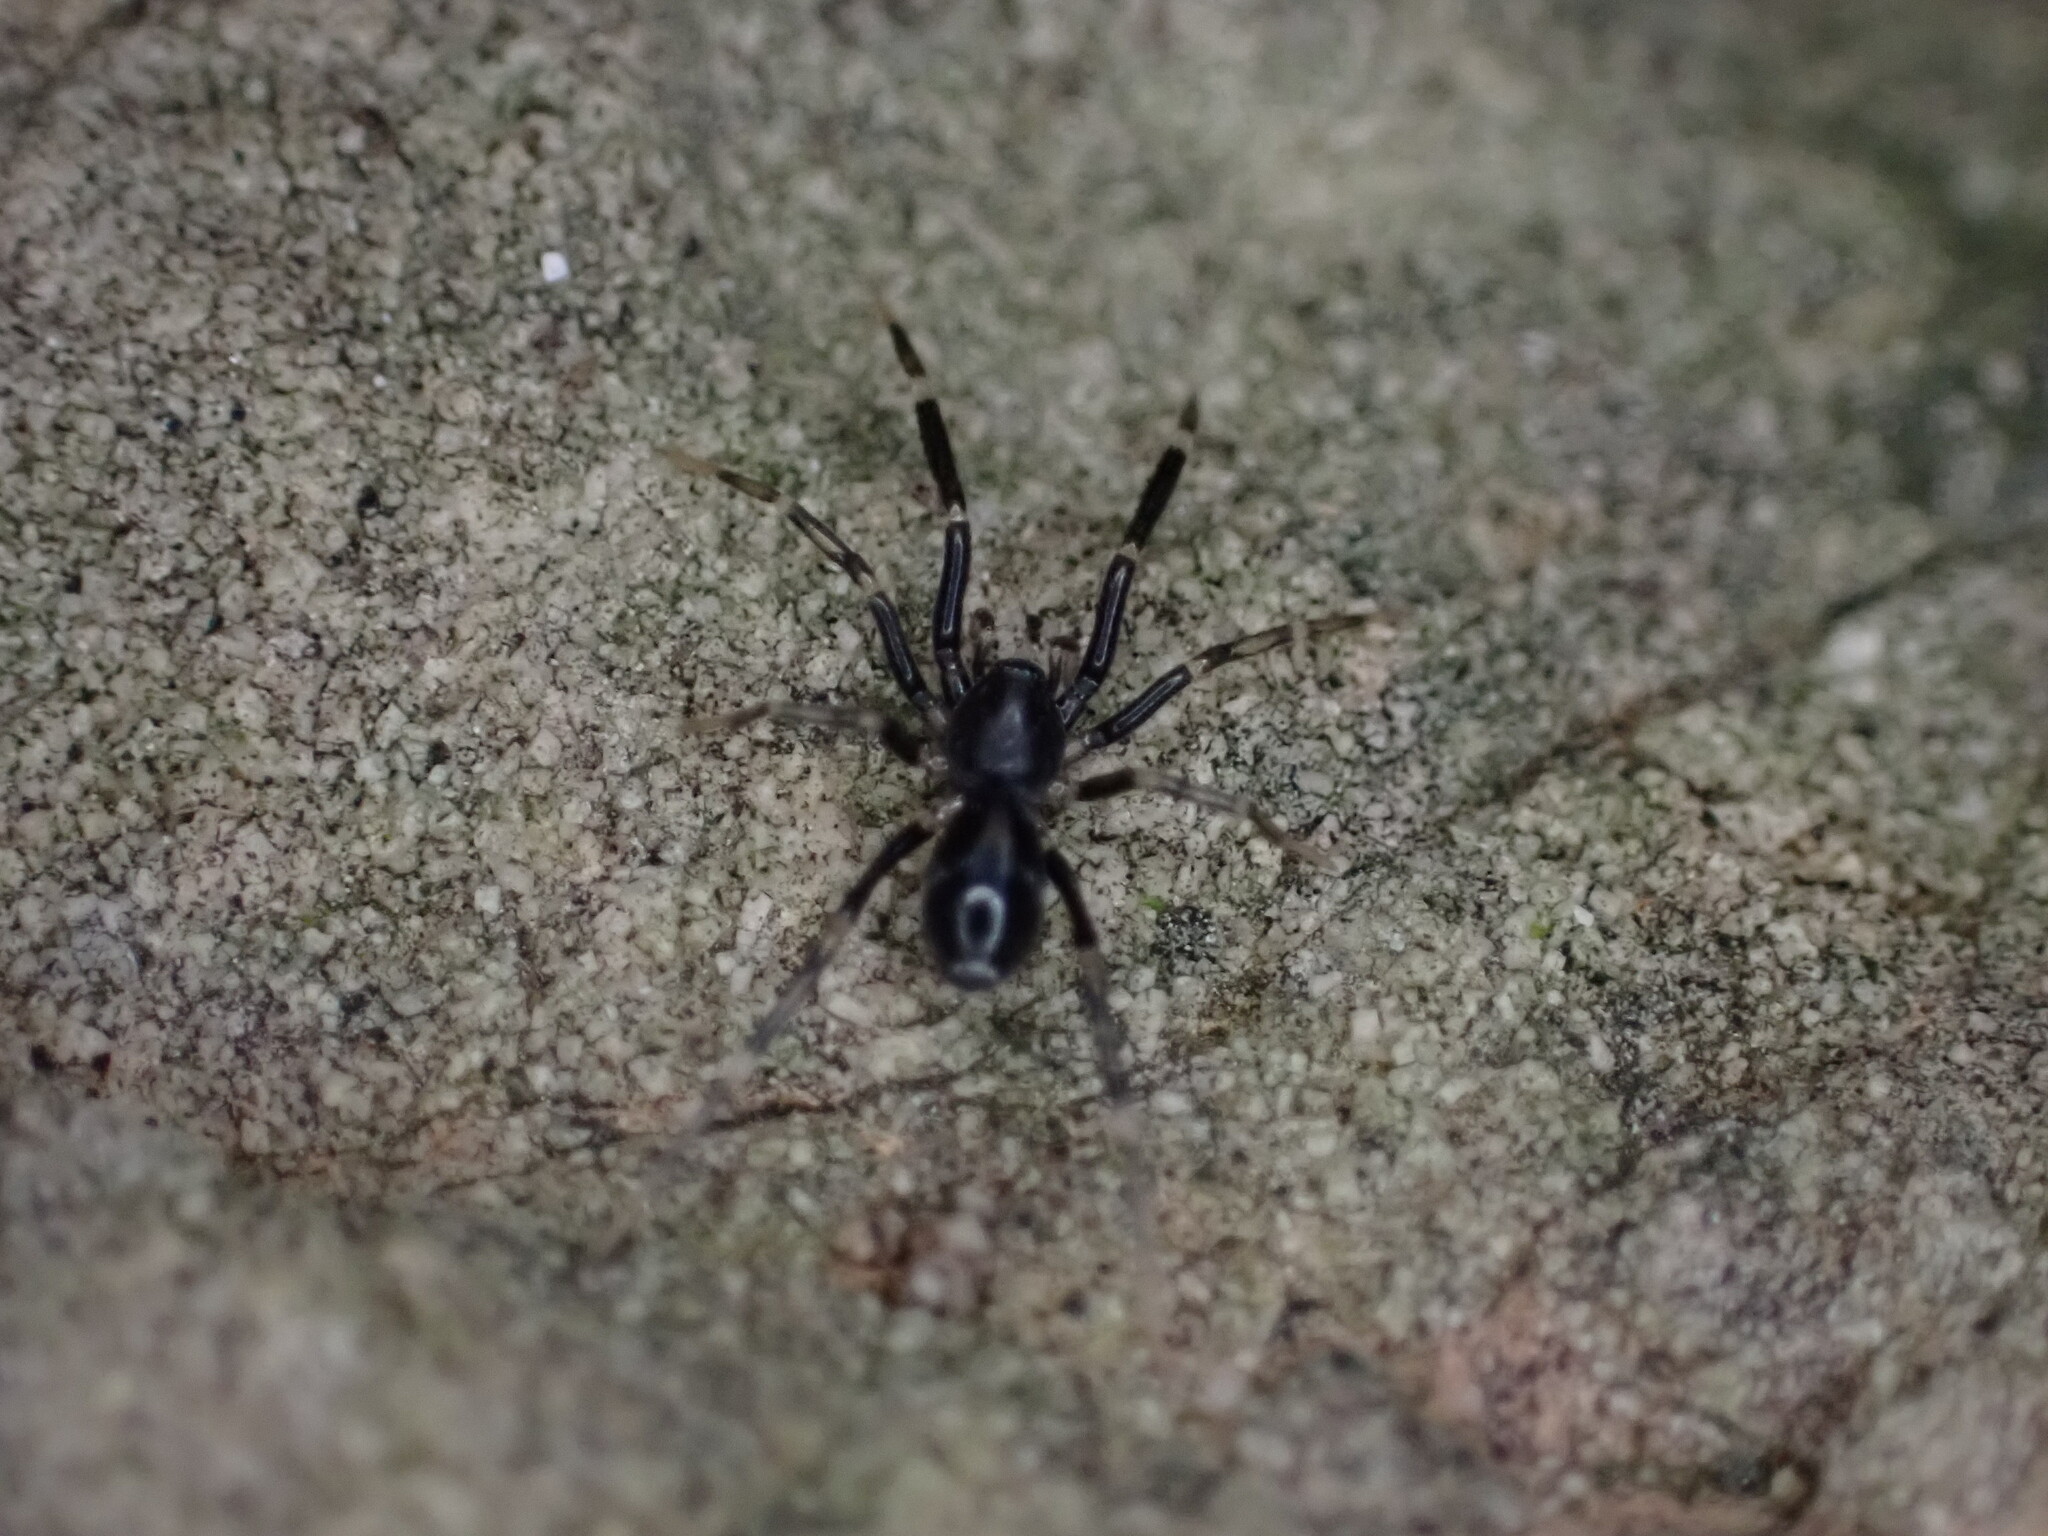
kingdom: Animalia
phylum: Arthropoda
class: Arachnida
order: Araneae
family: Phrurolithidae
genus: Liophrurillus
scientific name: Liophrurillus flavitarsis
